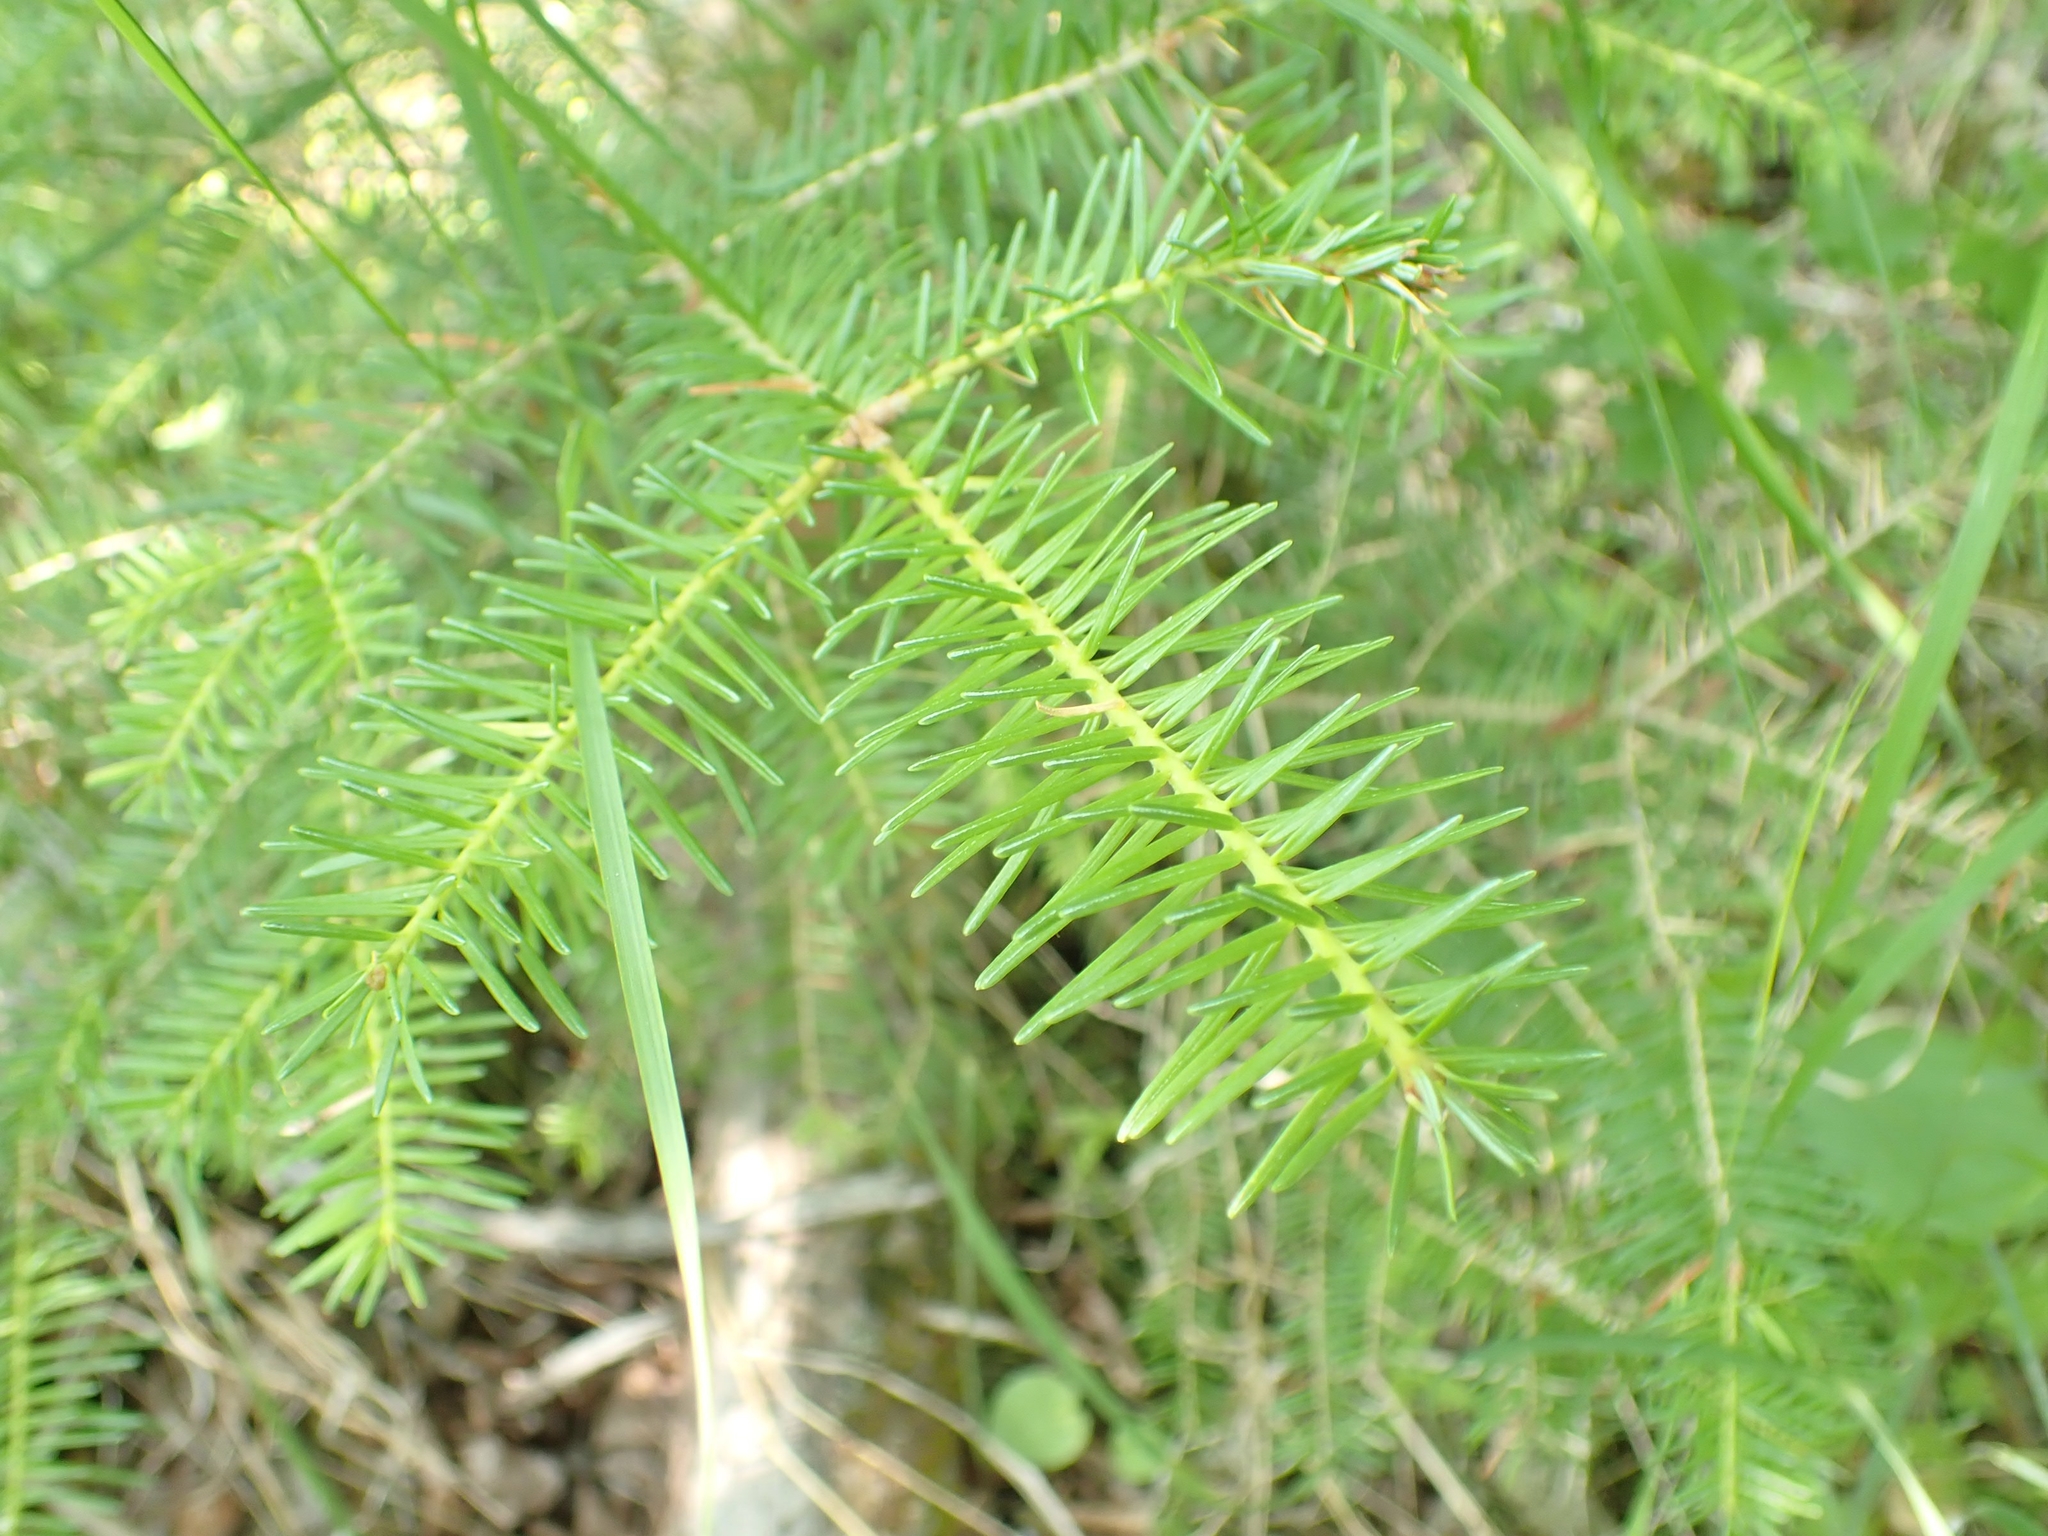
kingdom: Plantae
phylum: Tracheophyta
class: Pinopsida
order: Pinales
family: Pinaceae
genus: Abies
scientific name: Abies balsamea
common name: Balsam fir
